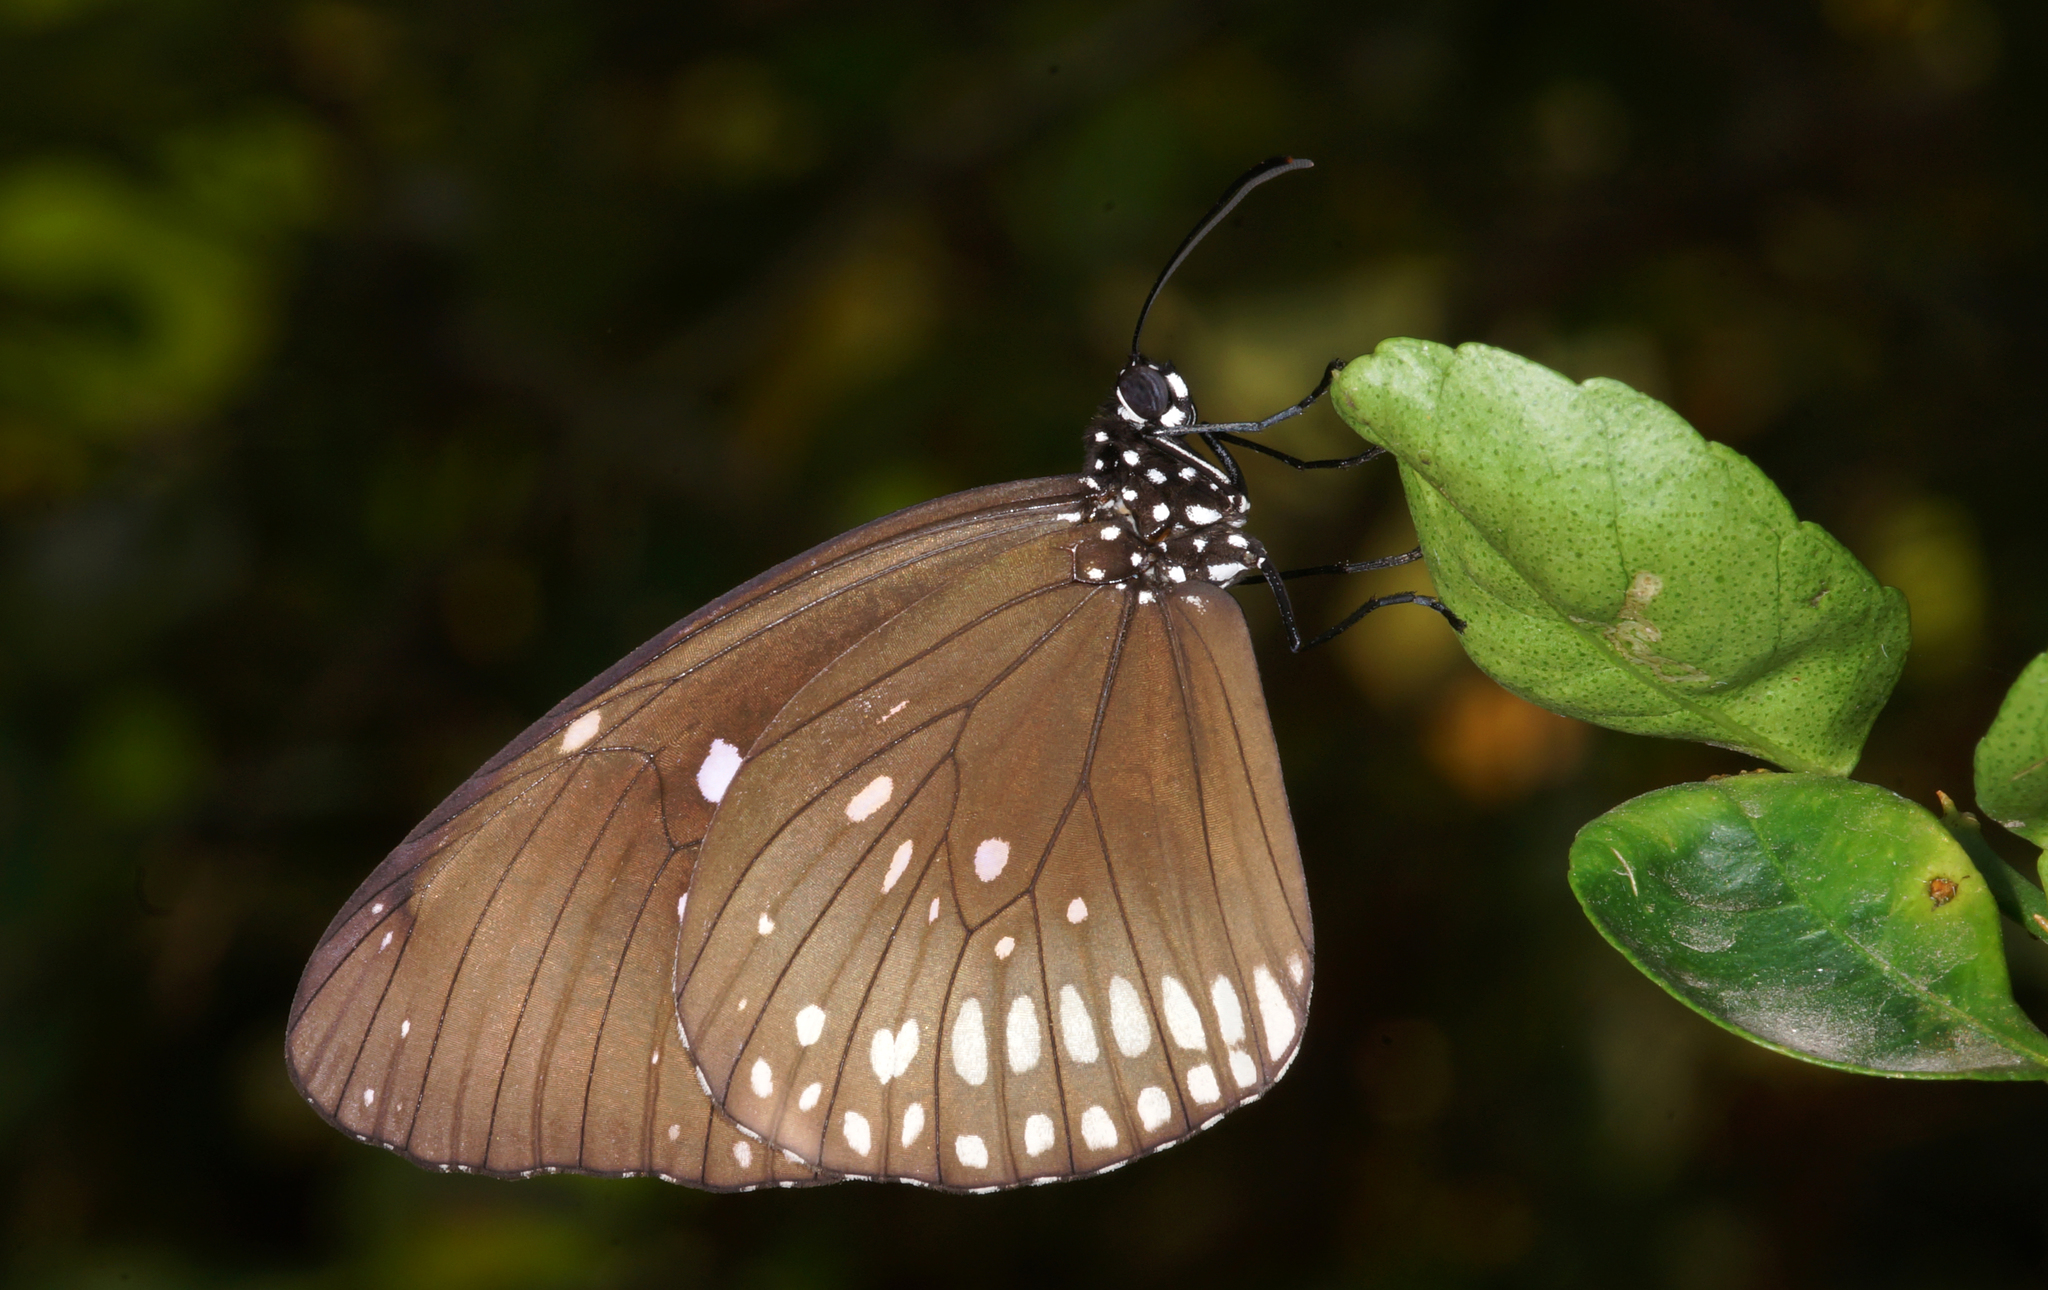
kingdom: Animalia
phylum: Arthropoda
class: Insecta
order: Lepidoptera
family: Nymphalidae
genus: Euploea
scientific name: Euploea core
